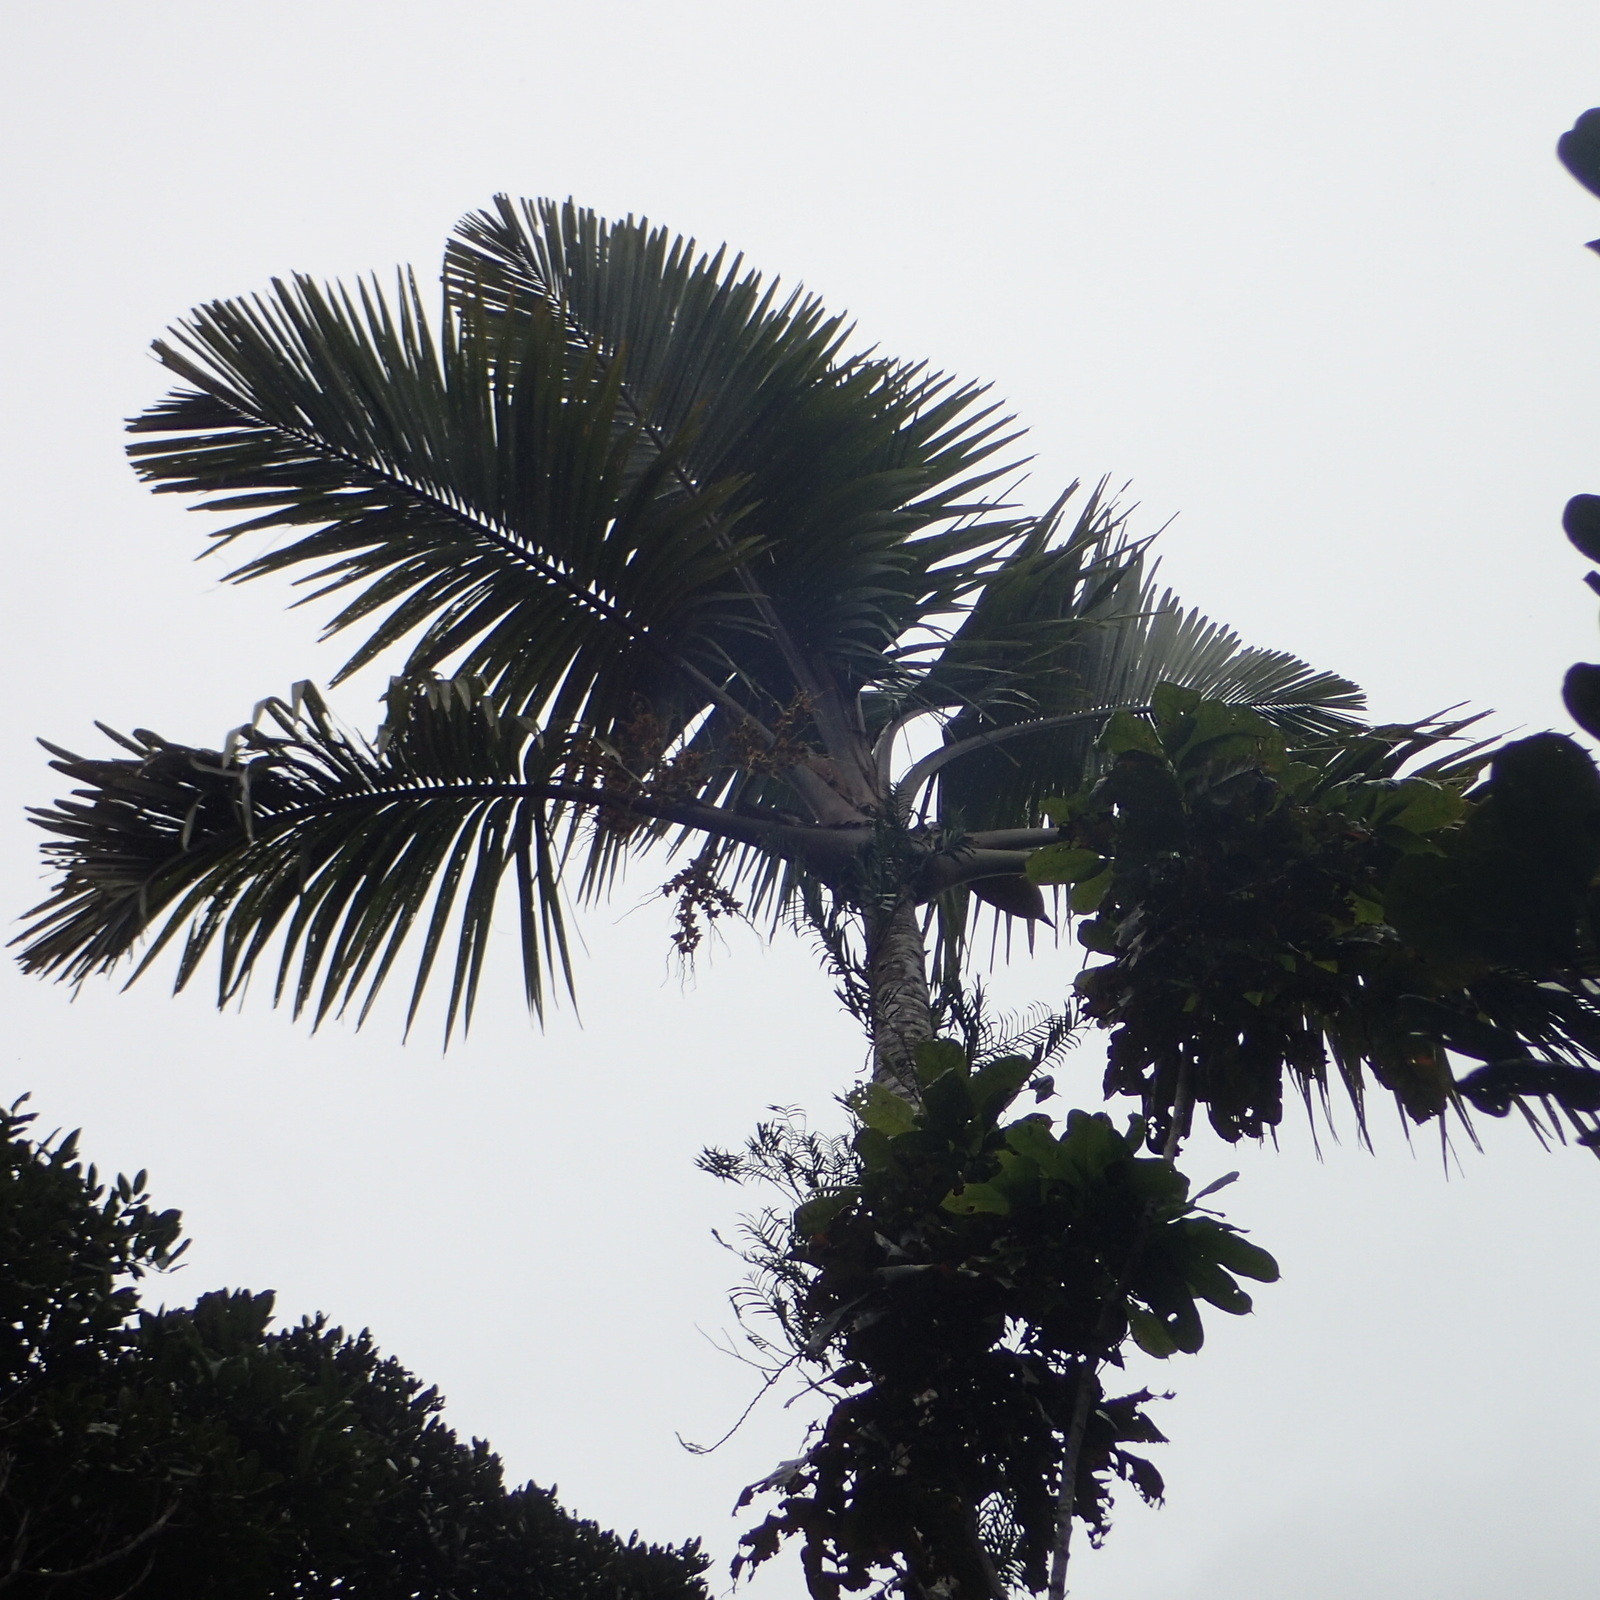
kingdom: Plantae
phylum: Tracheophyta
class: Liliopsida
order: Arecales
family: Arecaceae
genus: Orania
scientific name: Orania trispatha
